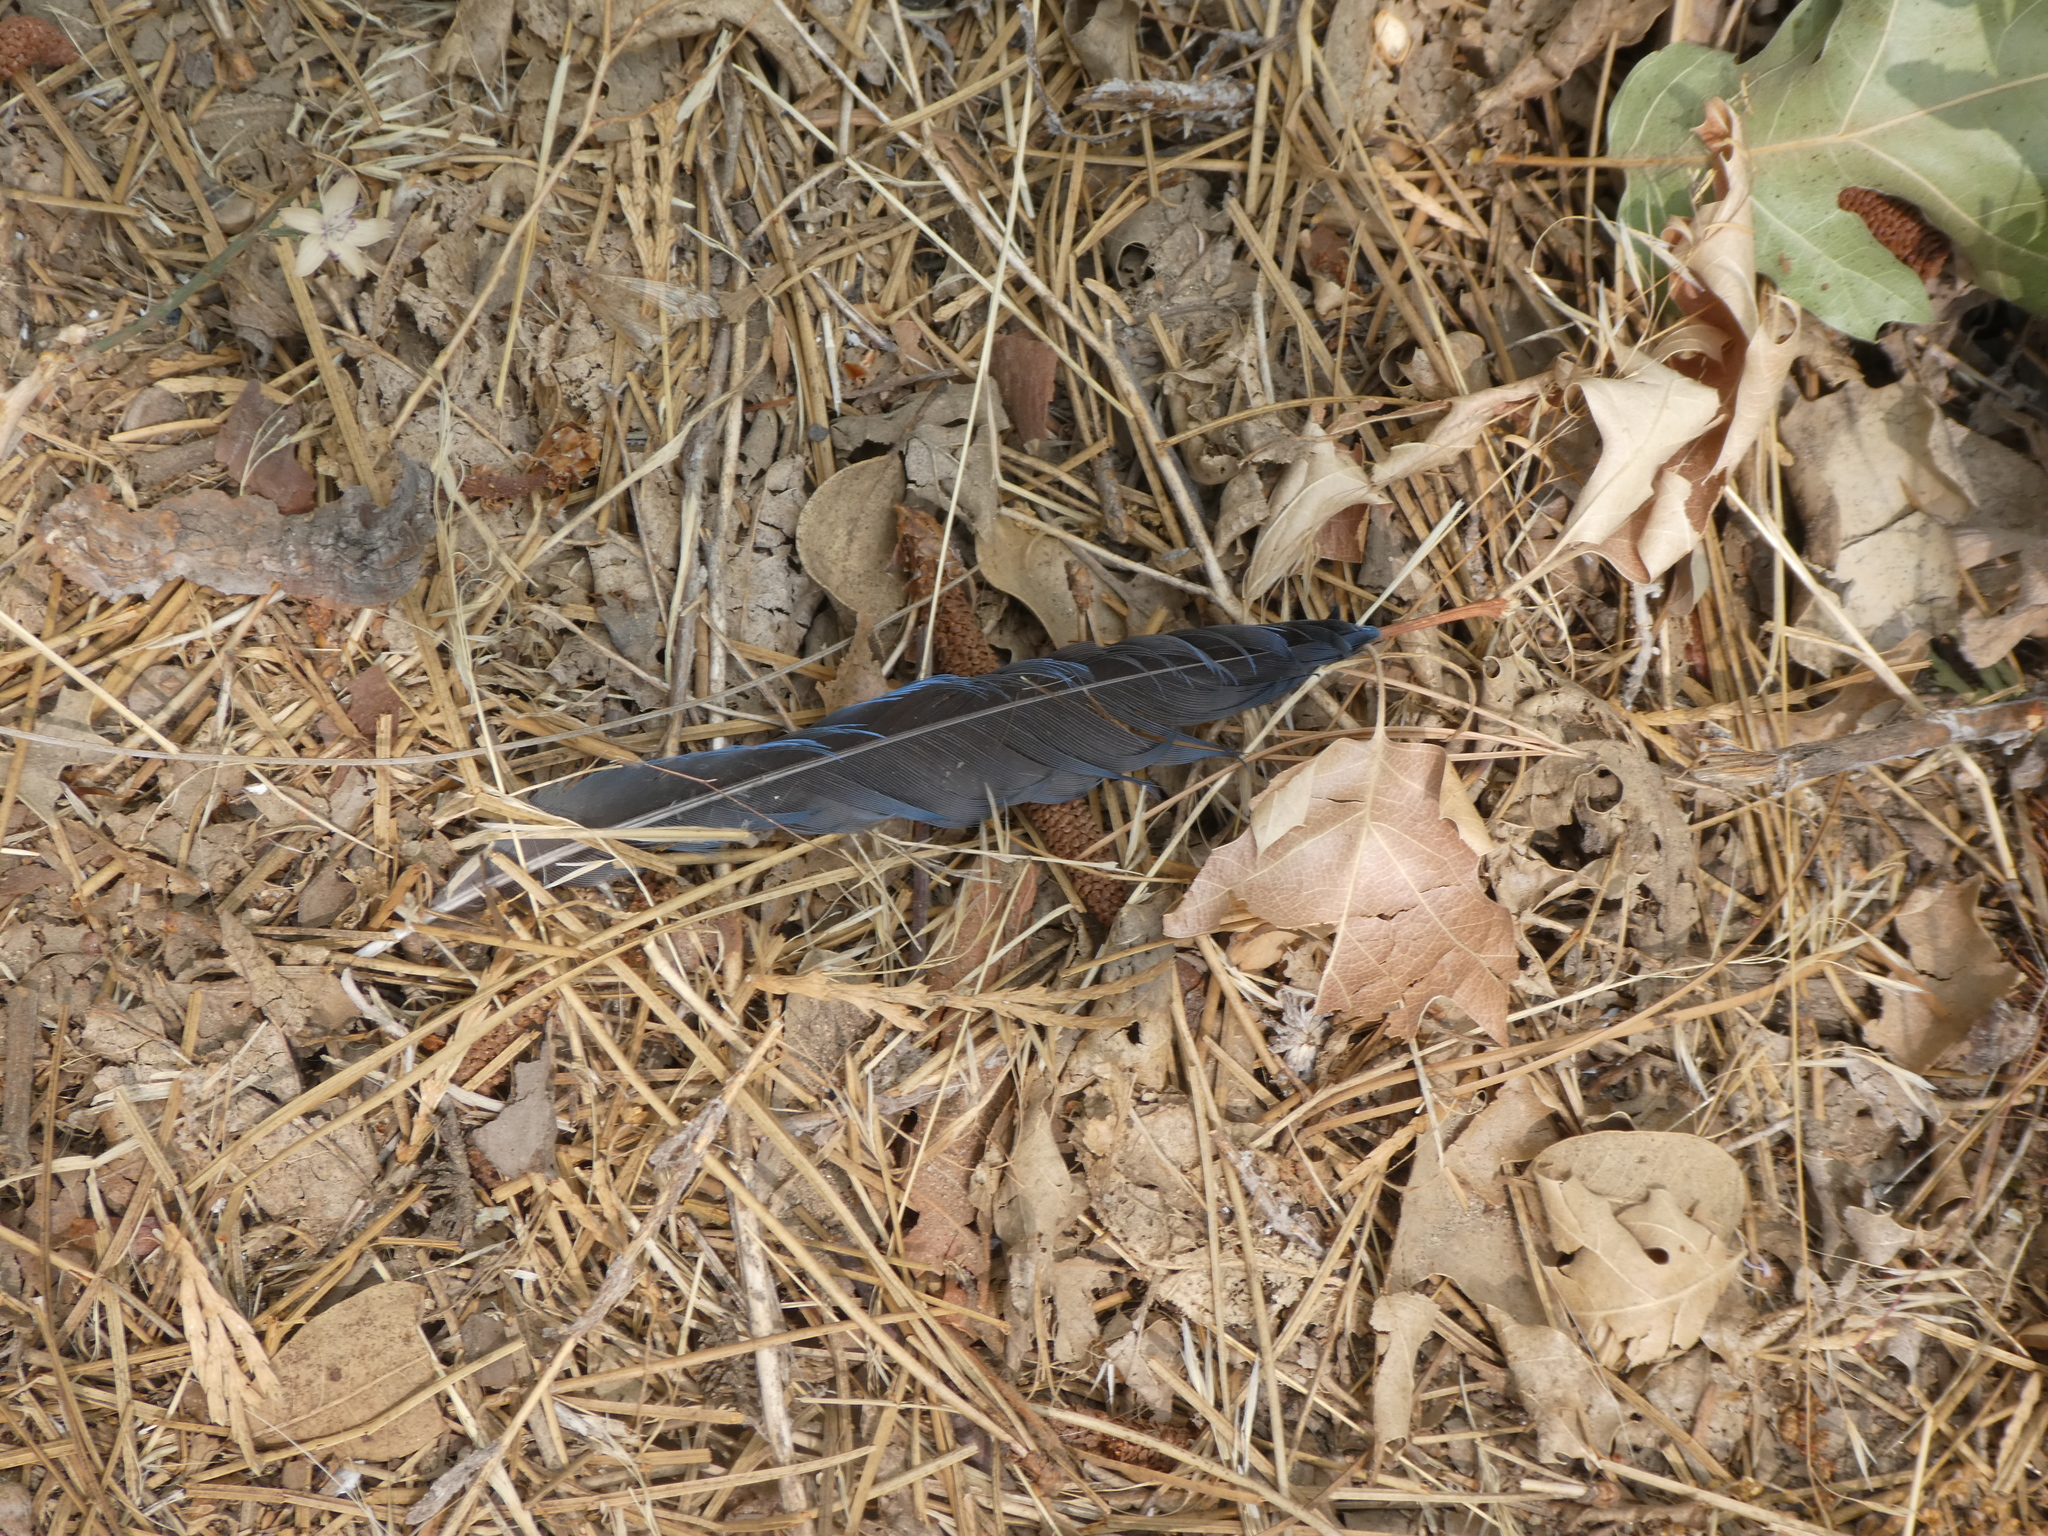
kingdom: Animalia
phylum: Chordata
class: Aves
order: Passeriformes
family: Corvidae
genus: Cyanocitta
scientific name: Cyanocitta stelleri
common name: Steller's jay
